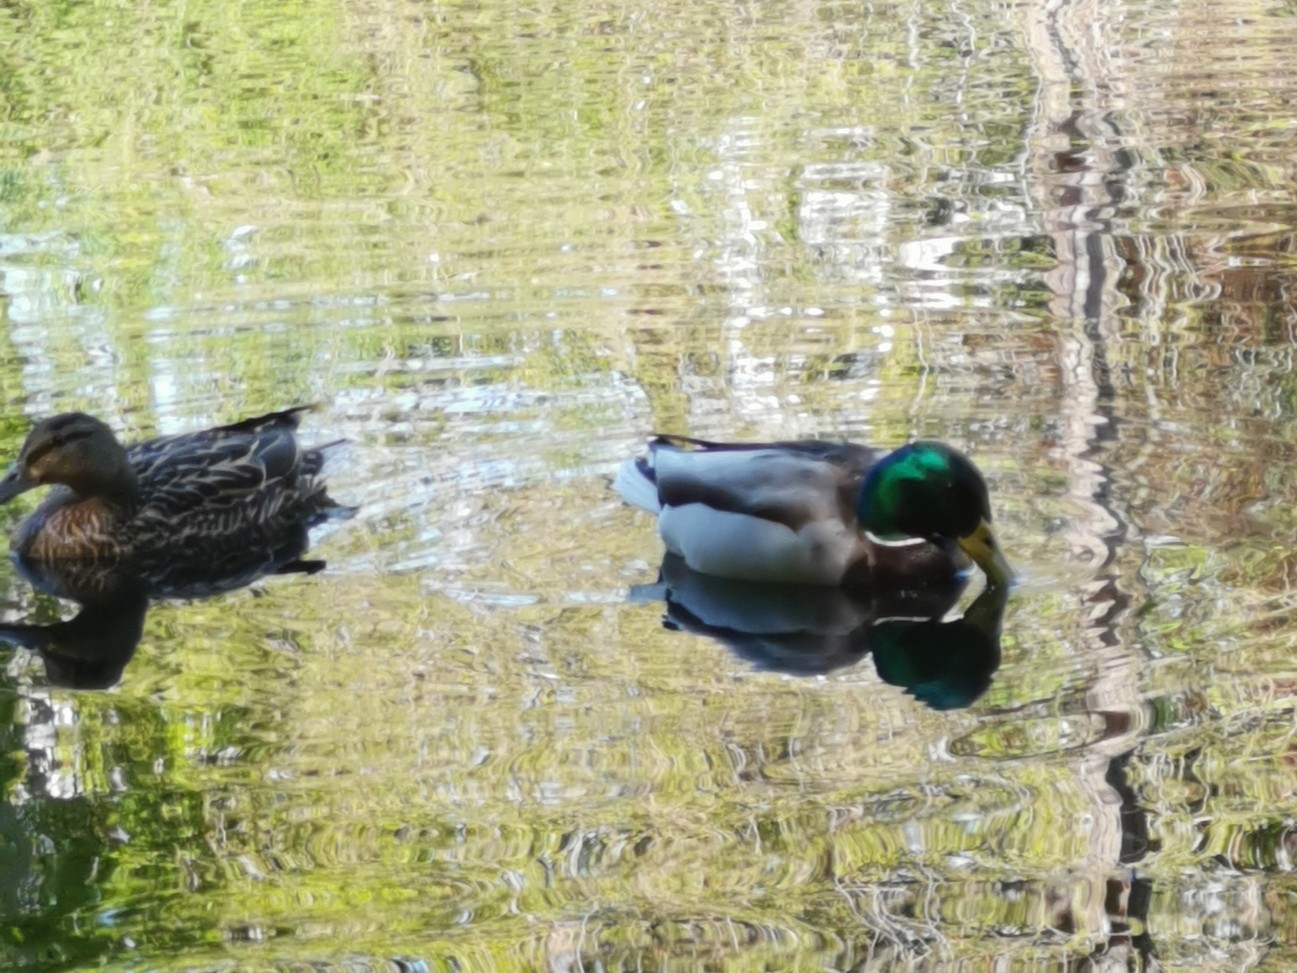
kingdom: Animalia
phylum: Chordata
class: Aves
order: Anseriformes
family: Anatidae
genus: Anas
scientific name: Anas platyrhynchos
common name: Mallard
